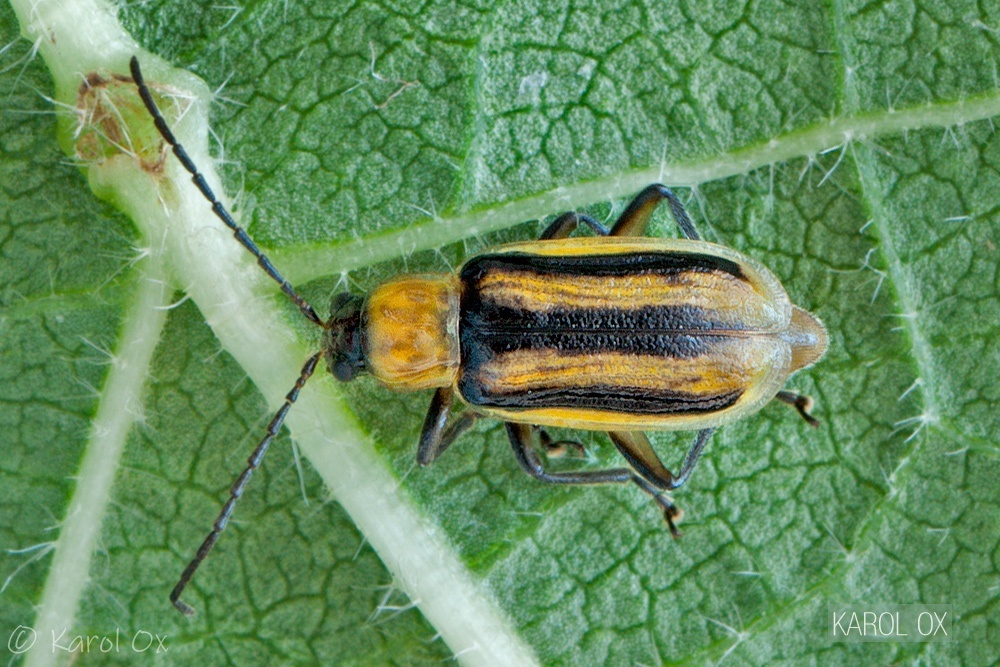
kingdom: Animalia
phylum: Arthropoda
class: Insecta
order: Coleoptera
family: Chrysomelidae
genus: Diabrotica
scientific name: Diabrotica virgifera
